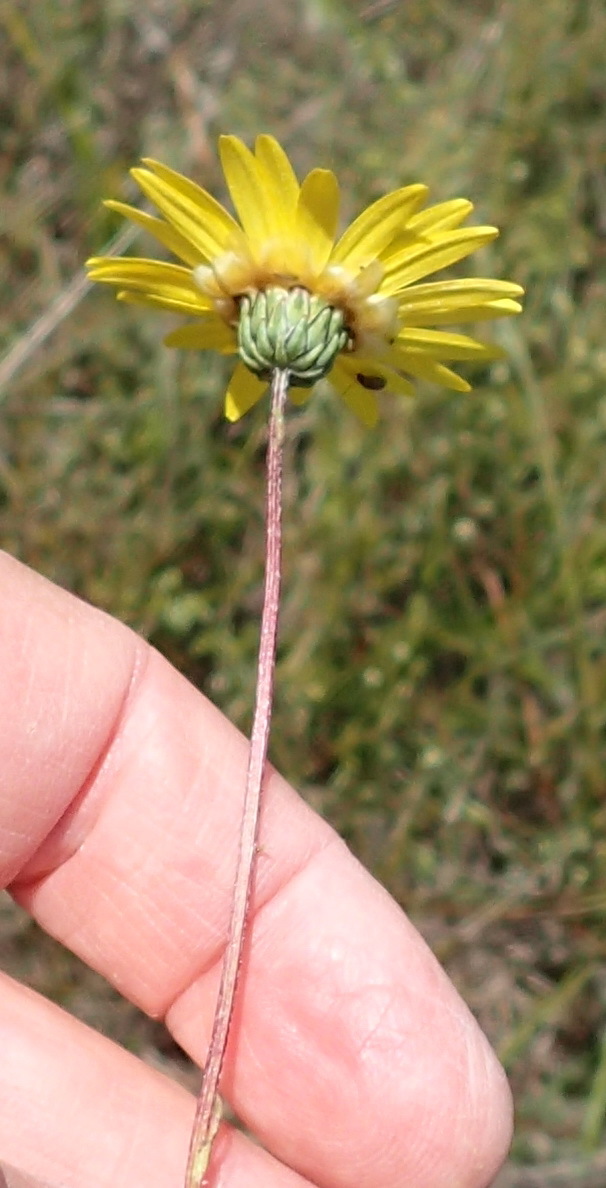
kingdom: Plantae
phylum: Tracheophyta
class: Magnoliopsida
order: Asterales
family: Asteraceae
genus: Ursinia
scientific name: Ursinia anethoides
